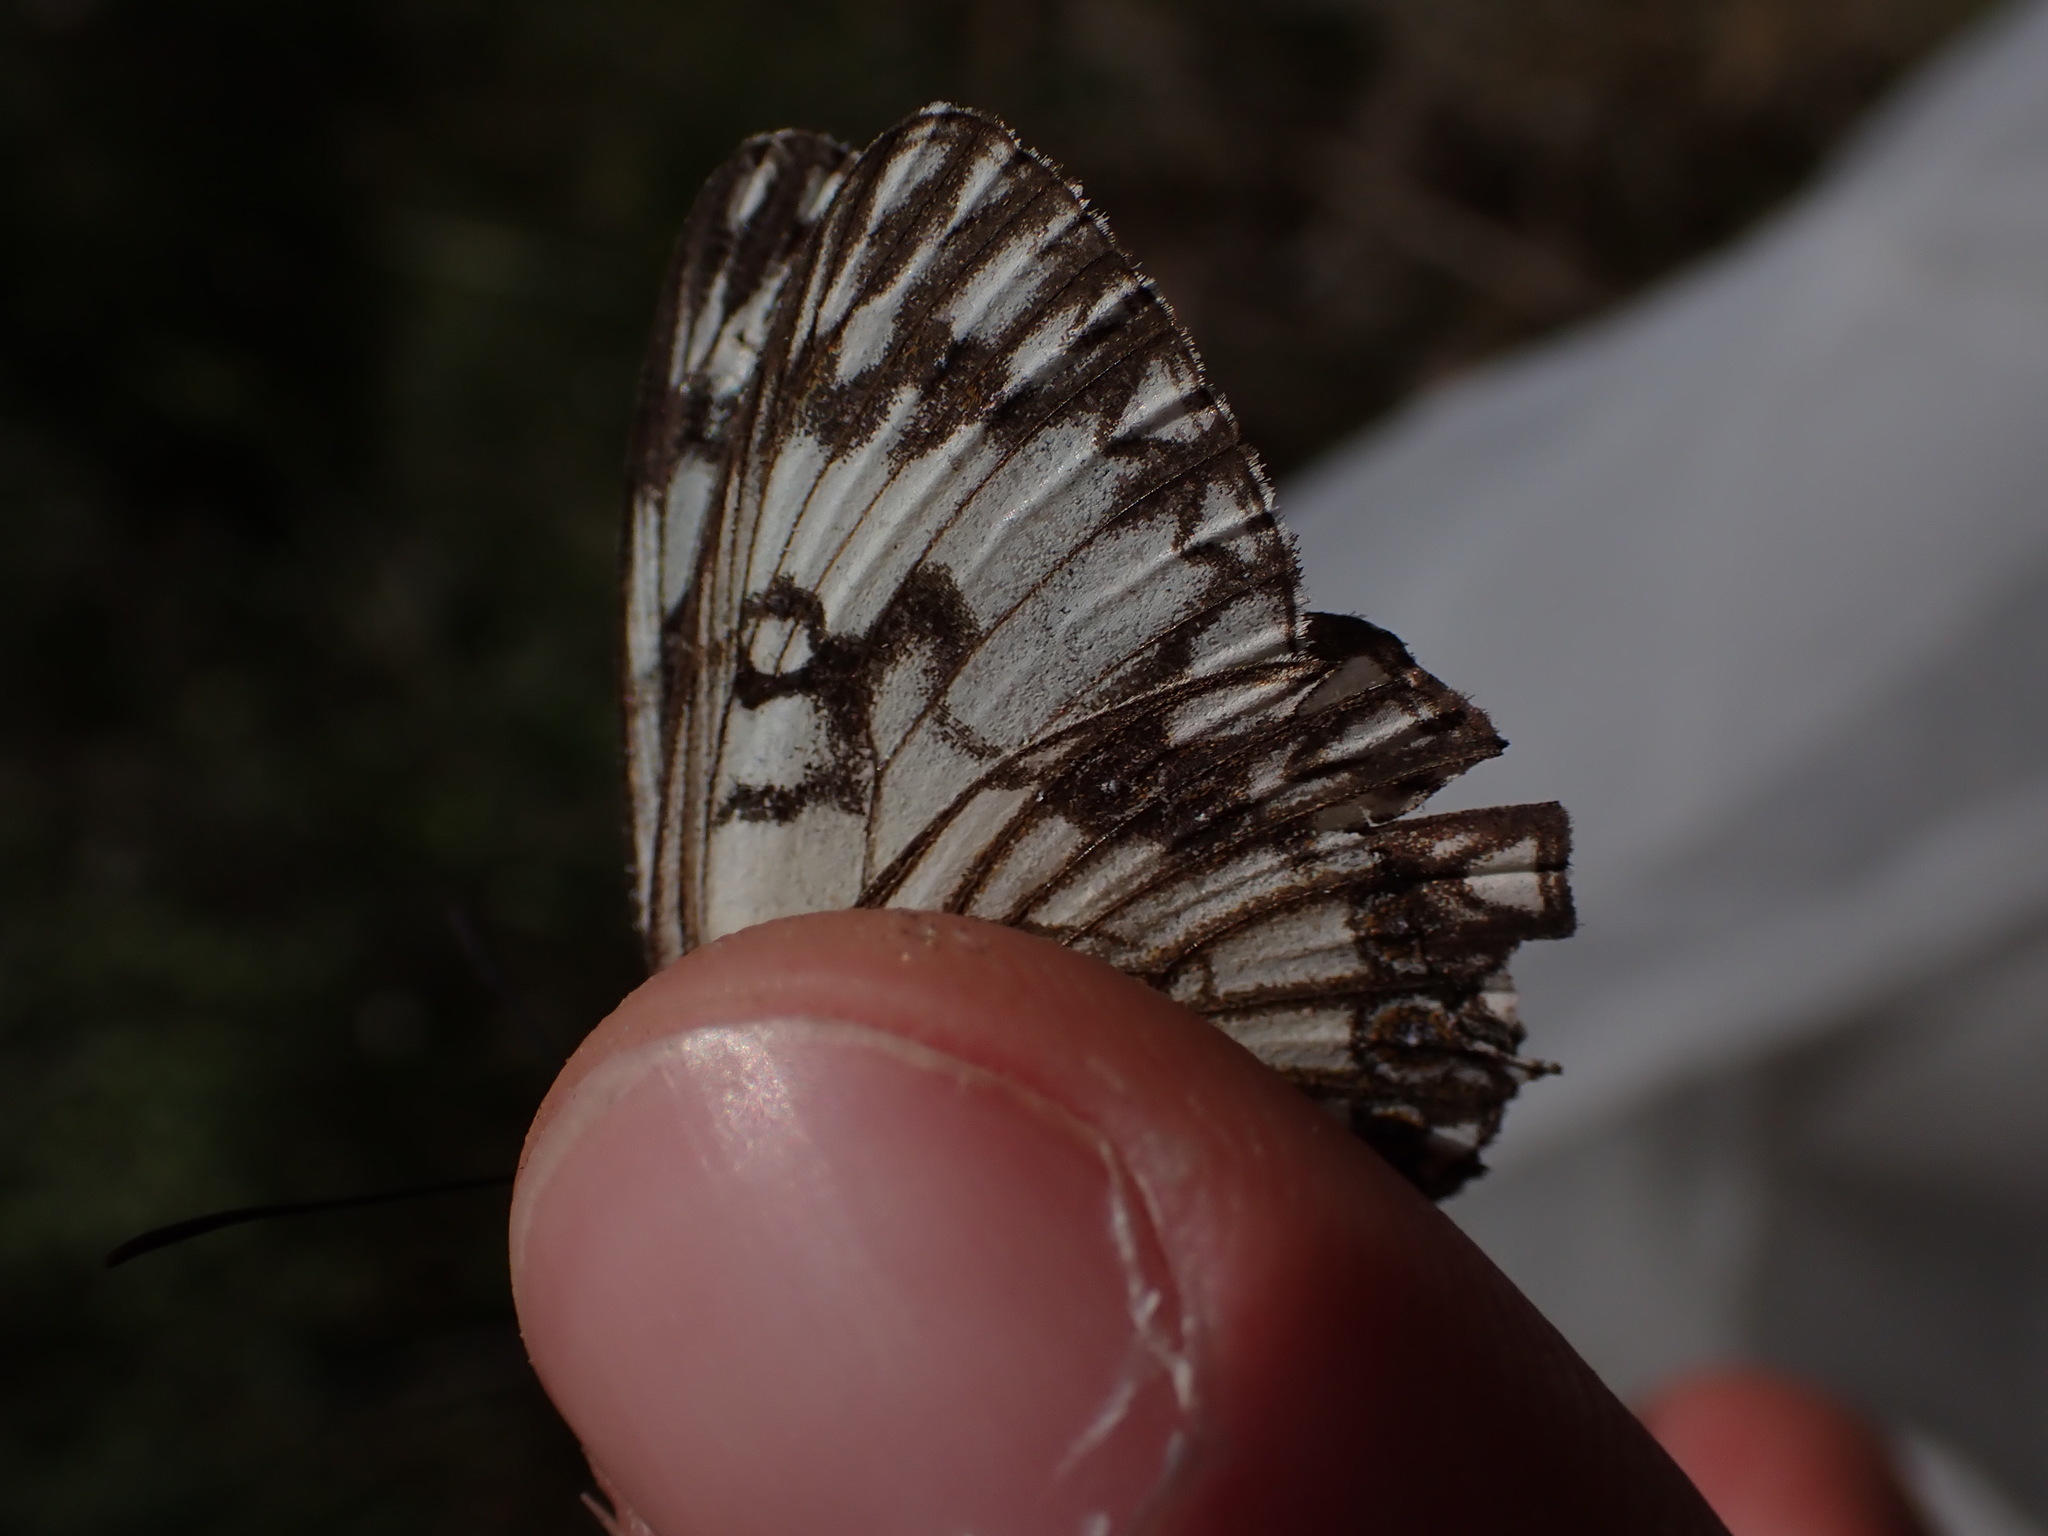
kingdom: Animalia
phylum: Arthropoda
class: Insecta
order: Lepidoptera
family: Nymphalidae
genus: Melanargia
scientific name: Melanargia occitanica
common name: Western marbled white
